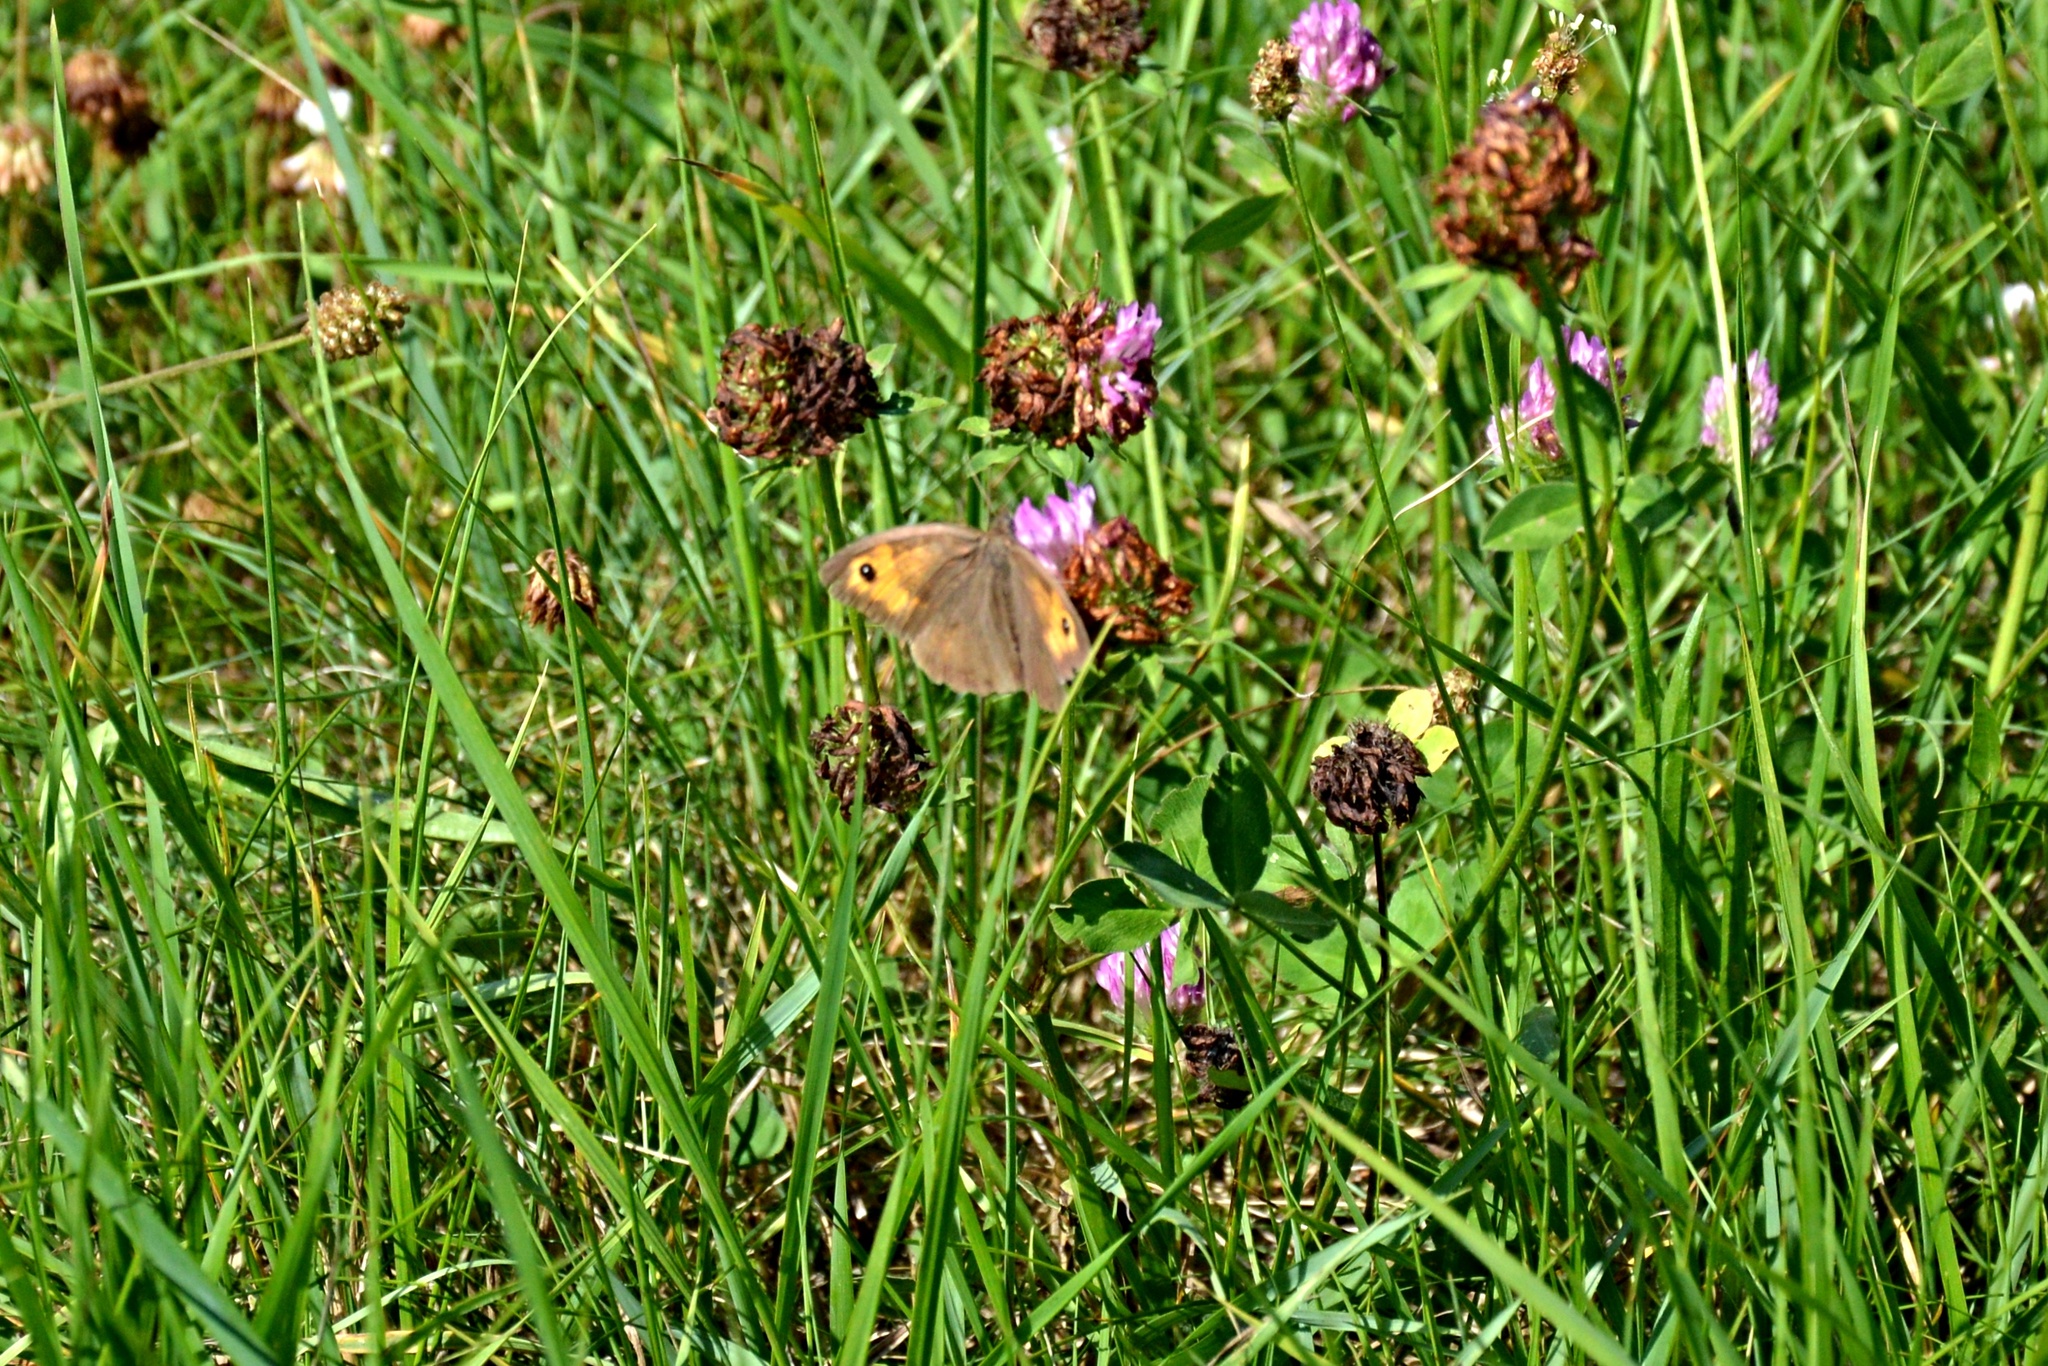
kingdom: Animalia
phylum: Arthropoda
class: Insecta
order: Lepidoptera
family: Nymphalidae
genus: Maniola
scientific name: Maniola jurtina
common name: Meadow brown
